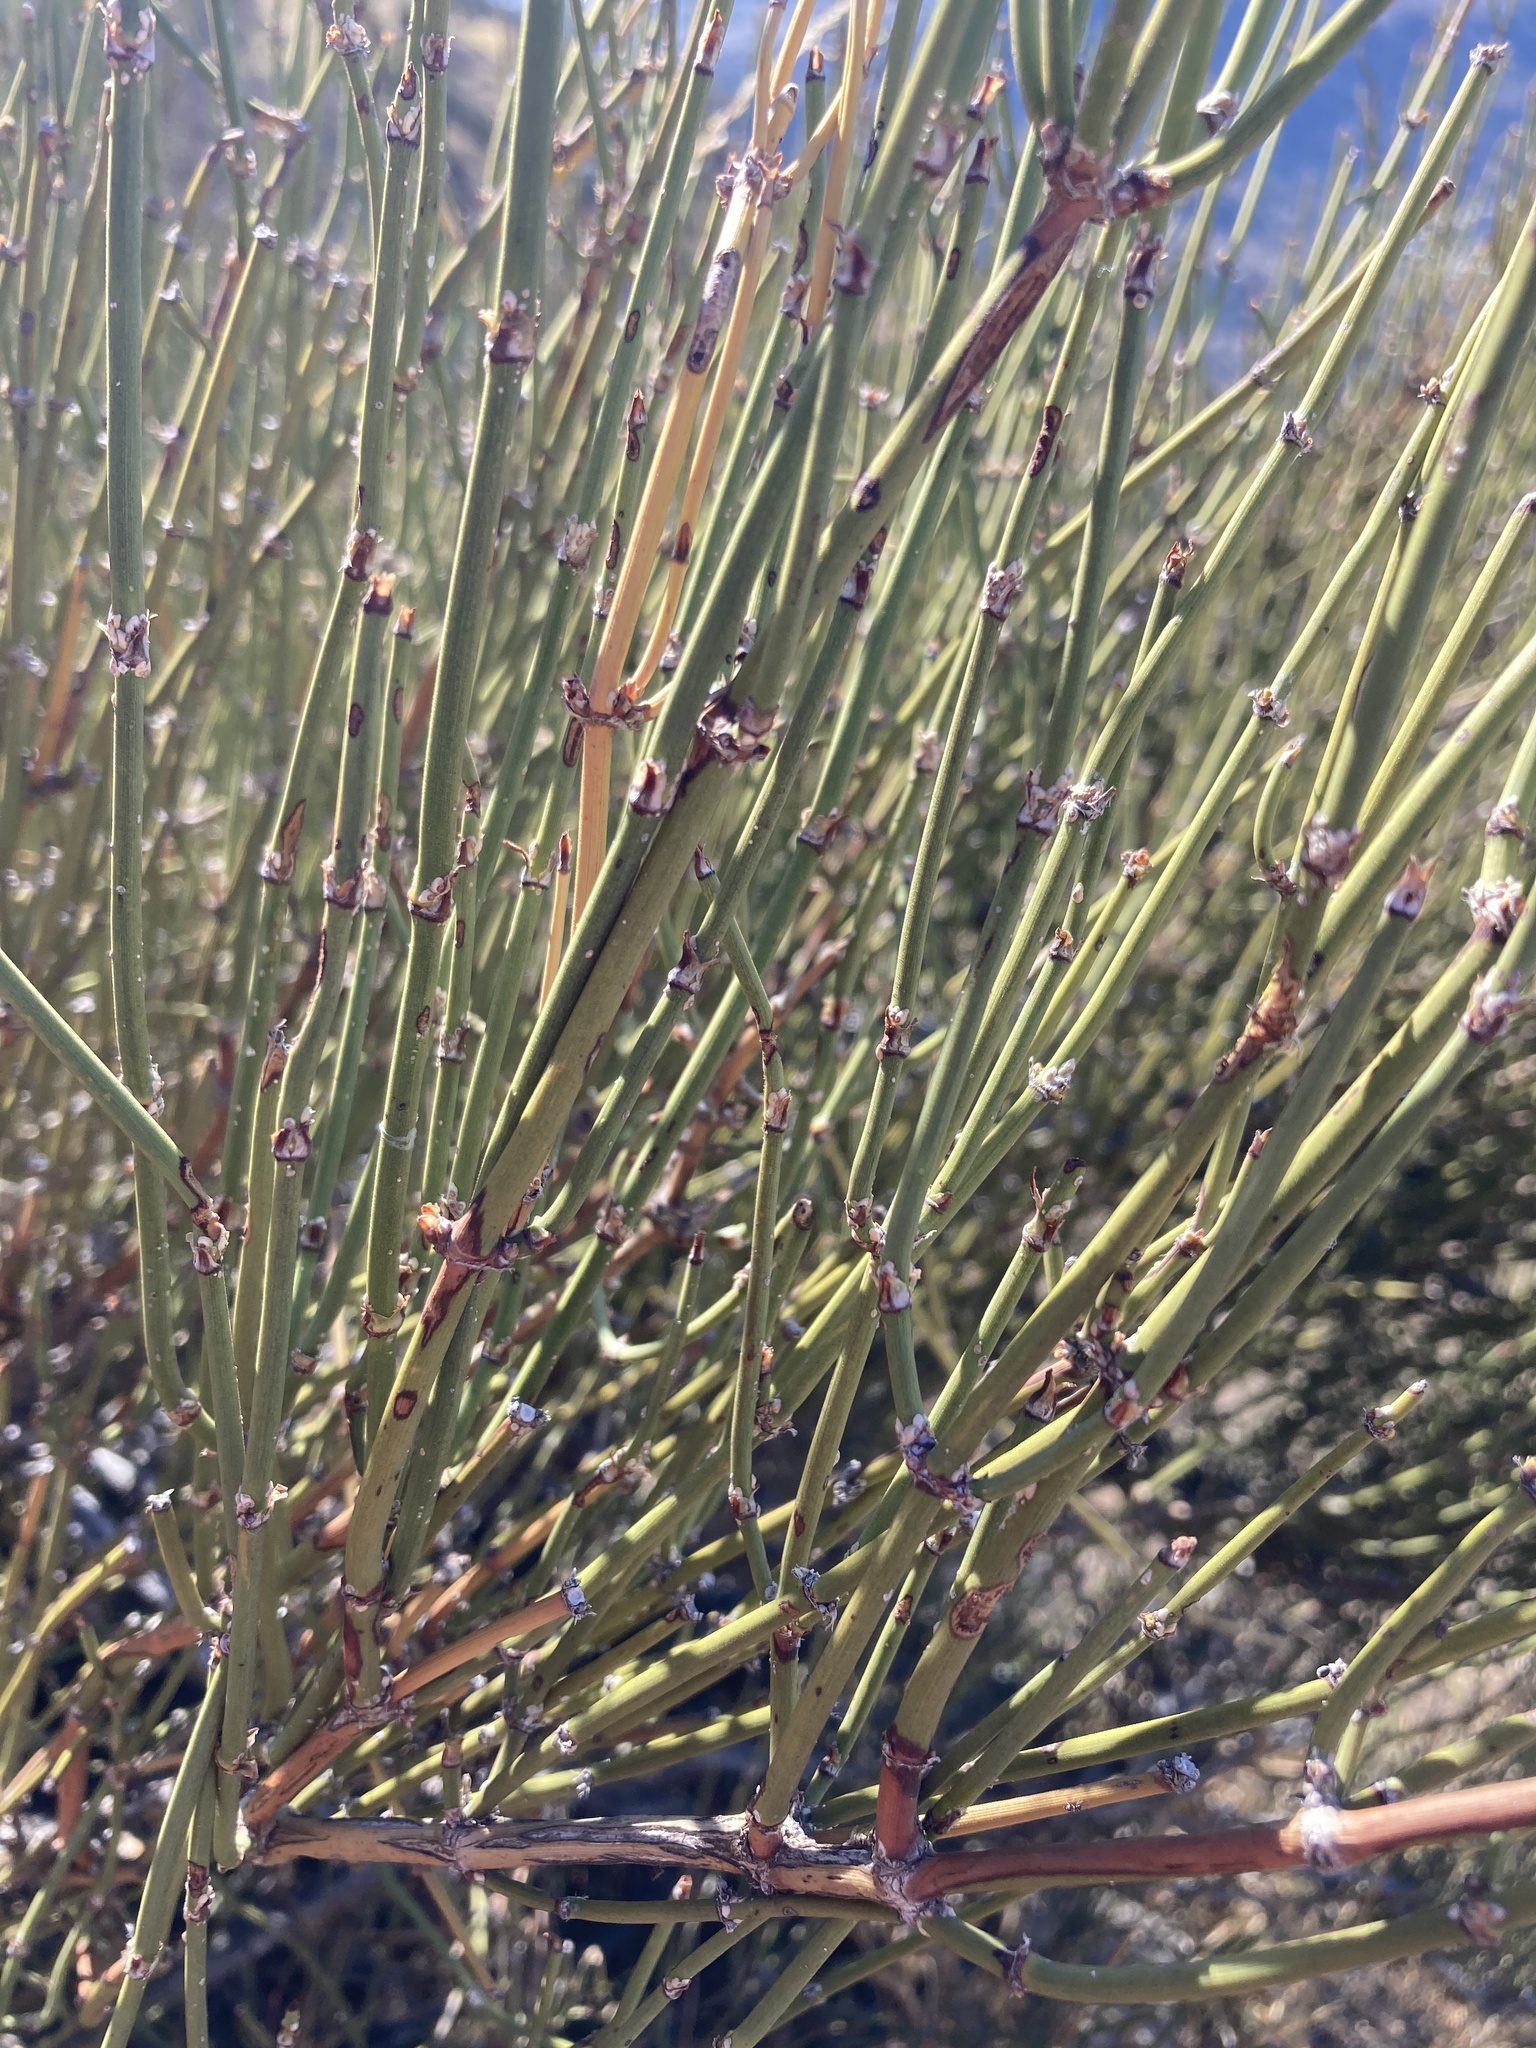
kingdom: Plantae
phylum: Tracheophyta
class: Gnetopsida
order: Ephedrales
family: Ephedraceae
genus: Ephedra
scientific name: Ephedra chilensis
